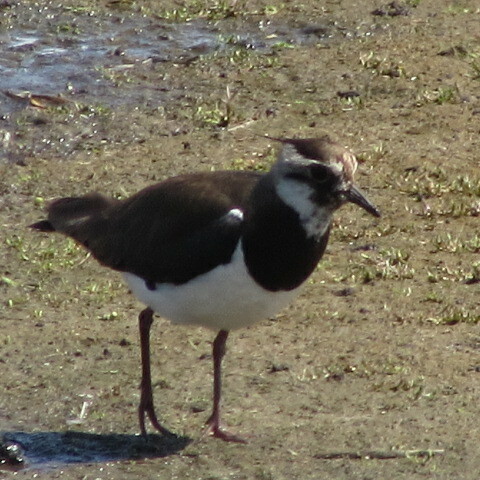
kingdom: Animalia
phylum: Chordata
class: Aves
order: Charadriiformes
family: Charadriidae
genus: Vanellus
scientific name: Vanellus vanellus
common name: Northern lapwing
